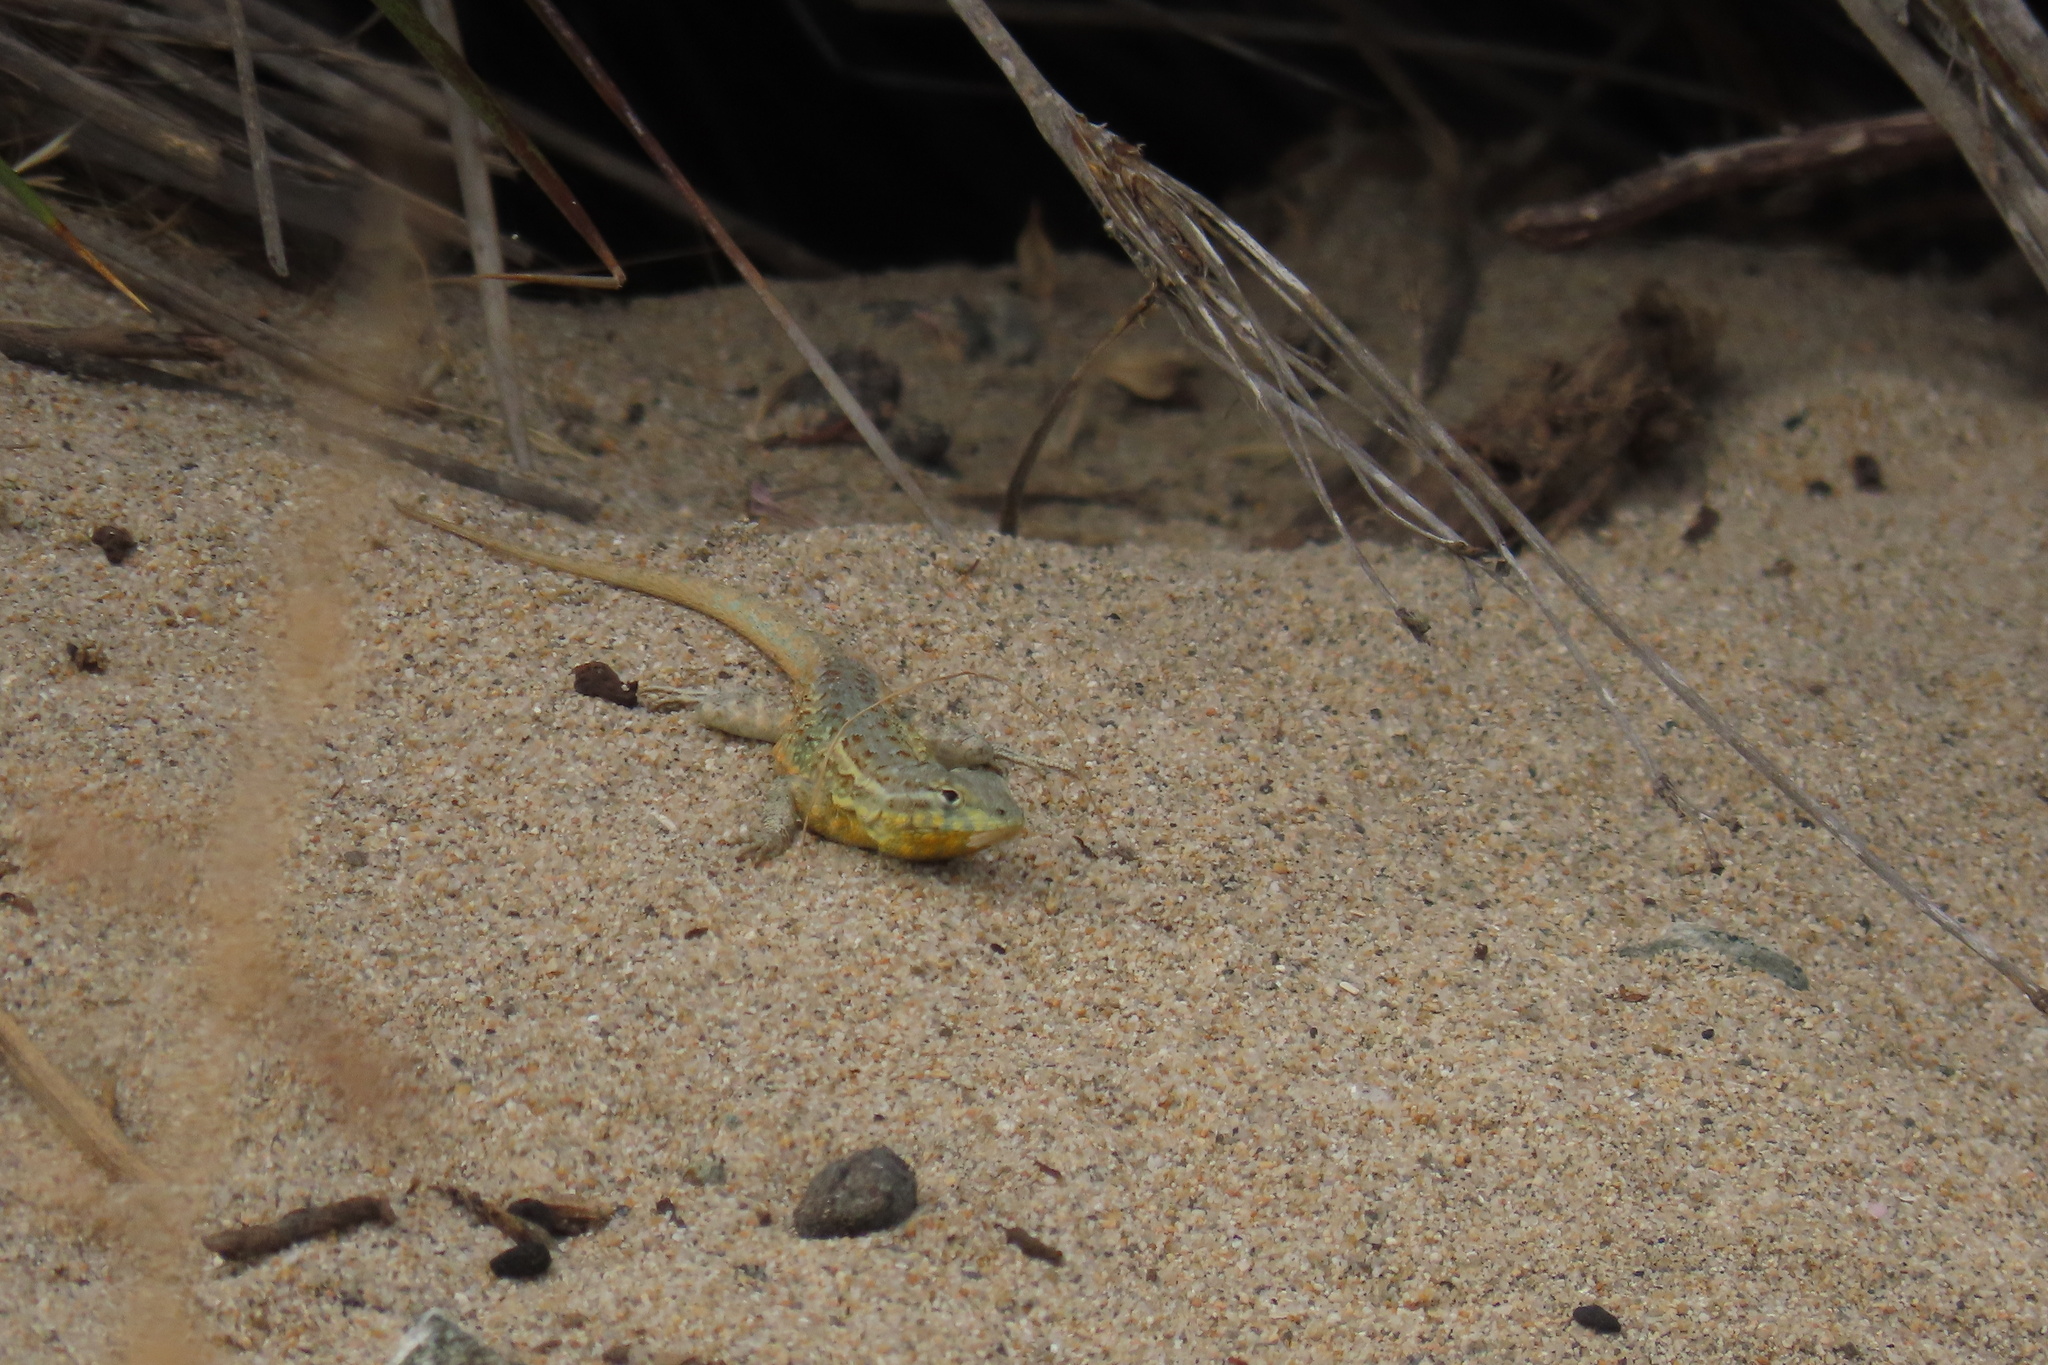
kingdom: Animalia
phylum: Chordata
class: Squamata
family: Phrynosomatidae
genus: Uta
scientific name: Uta stansburiana
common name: Side-blotched lizard
